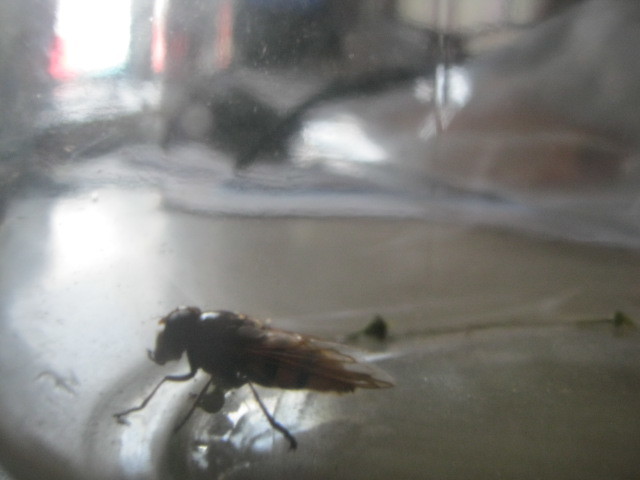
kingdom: Animalia
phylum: Arthropoda
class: Insecta
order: Diptera
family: Syrphidae
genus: Volucella
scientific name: Volucella
